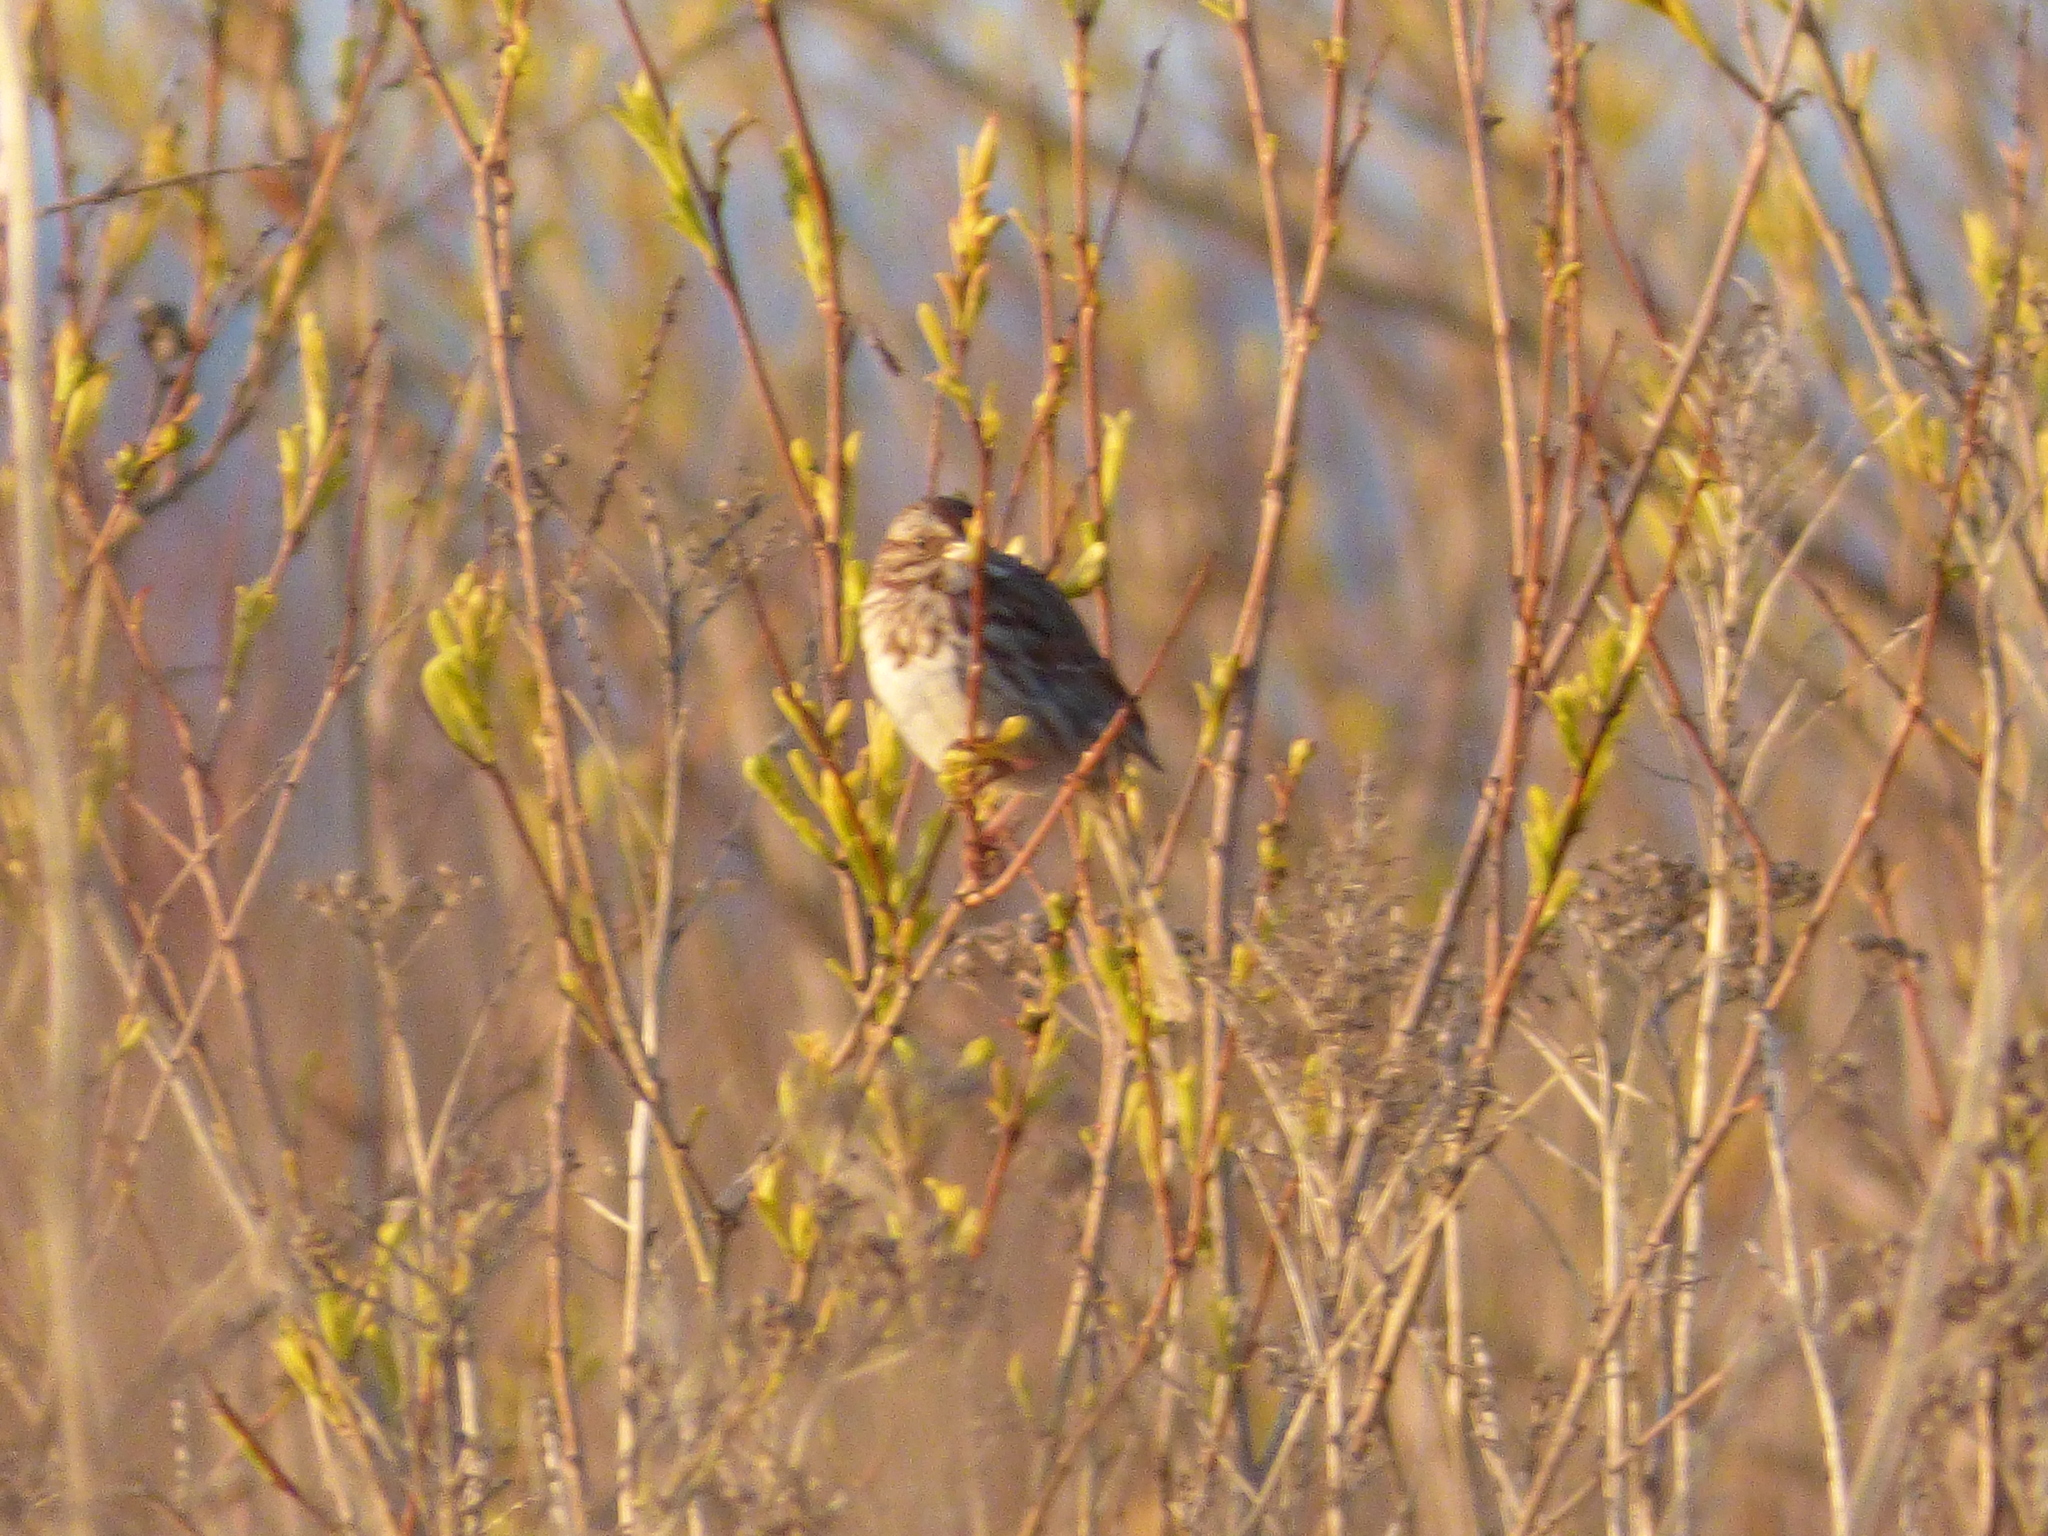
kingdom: Animalia
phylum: Chordata
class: Aves
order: Passeriformes
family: Passerellidae
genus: Melospiza
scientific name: Melospiza melodia
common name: Song sparrow
